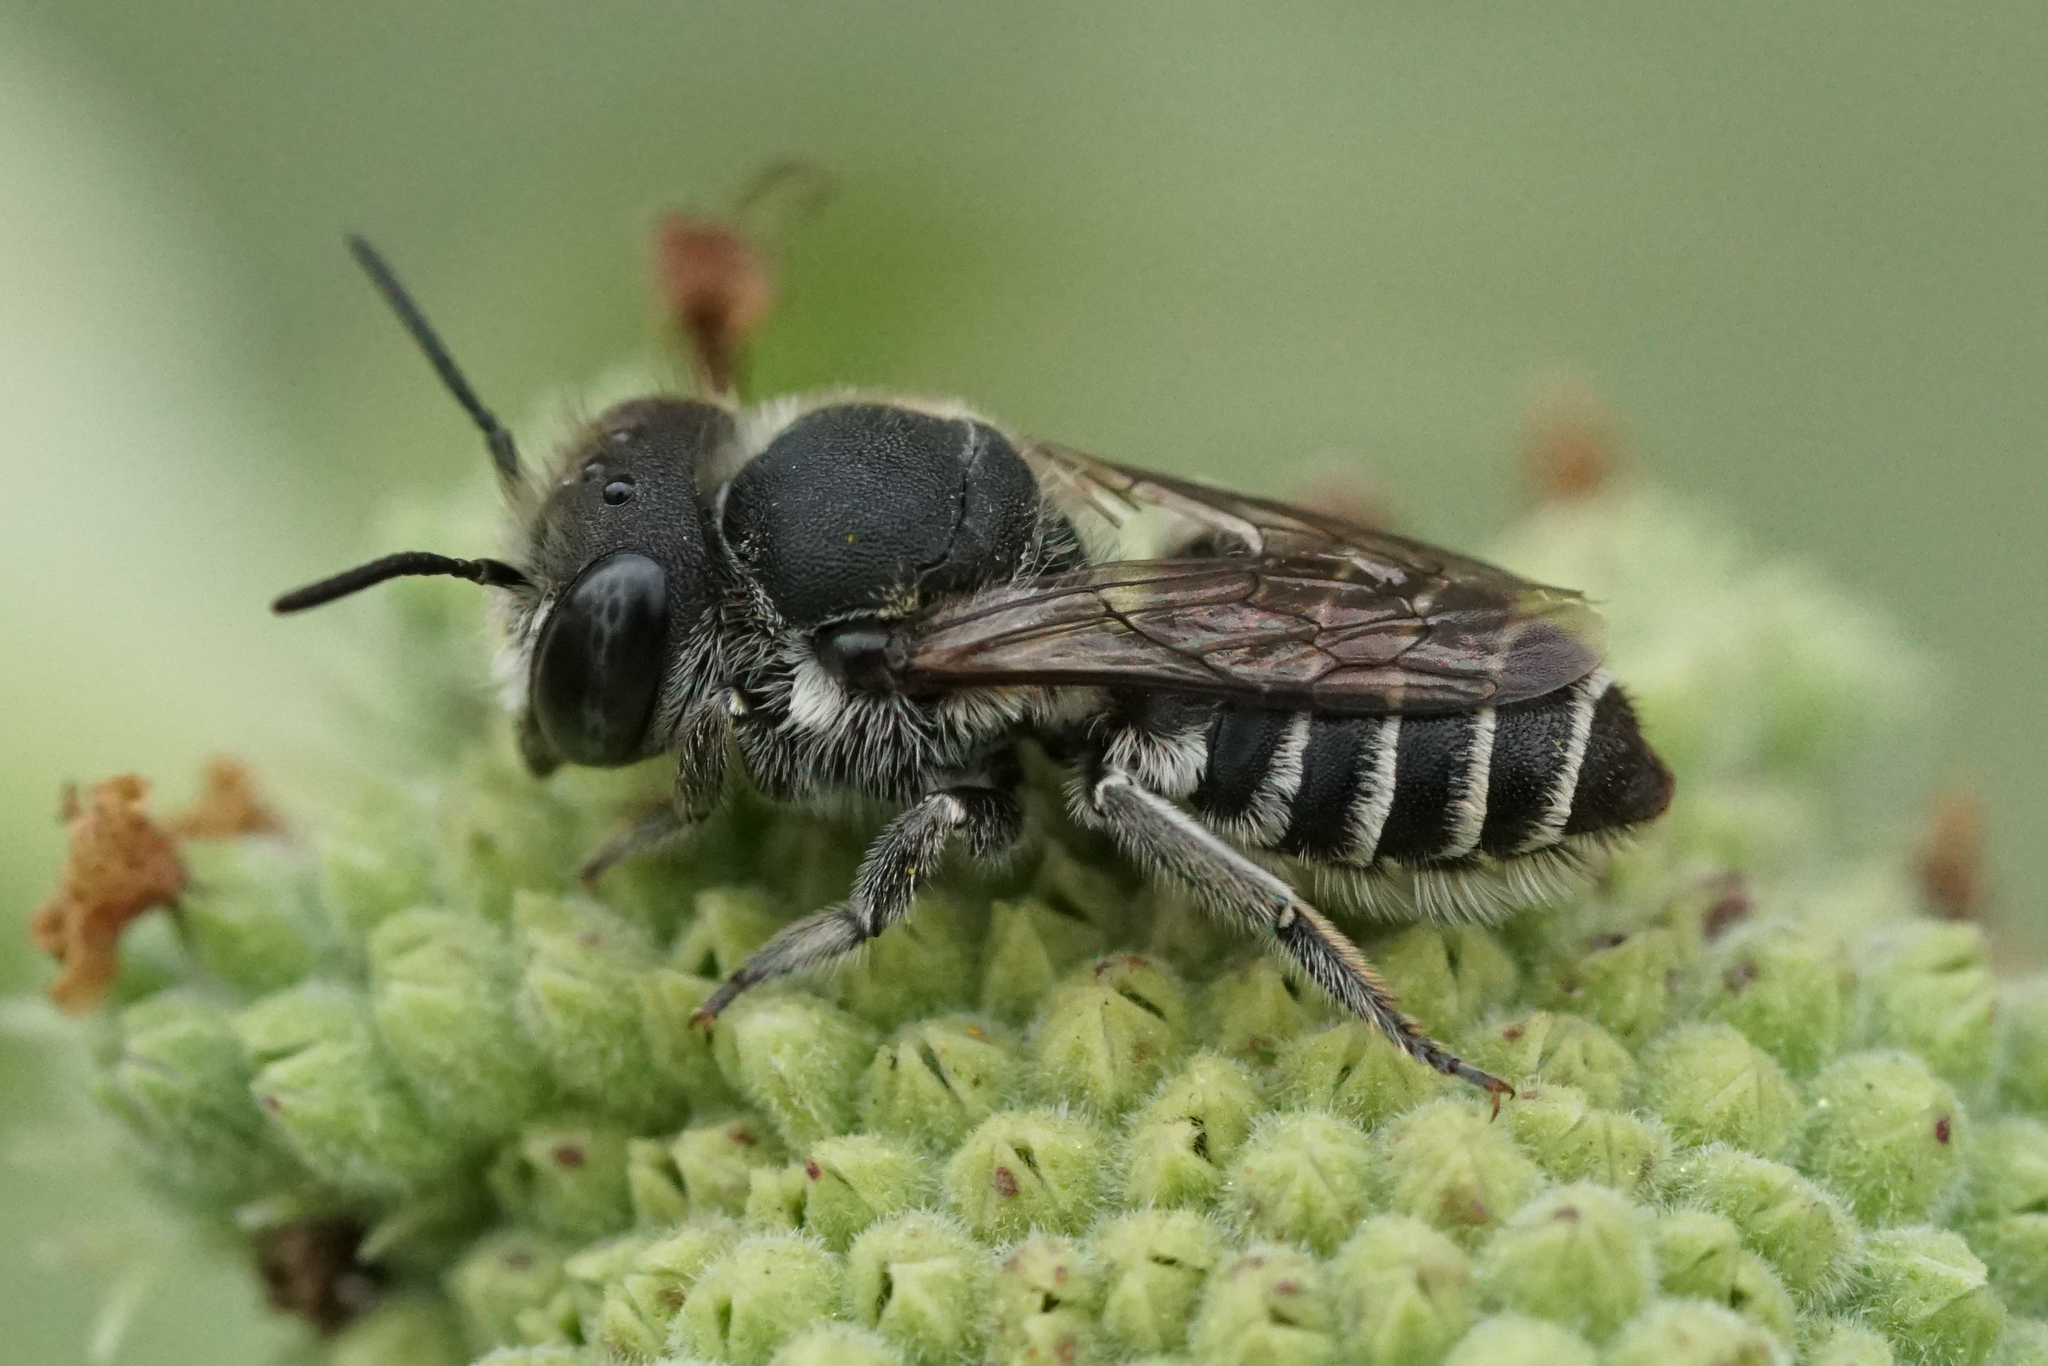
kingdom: Animalia
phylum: Arthropoda
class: Insecta
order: Hymenoptera
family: Megachilidae
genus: Megachile
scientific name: Megachile rotundata
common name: Alfalfa leafcutting bee
